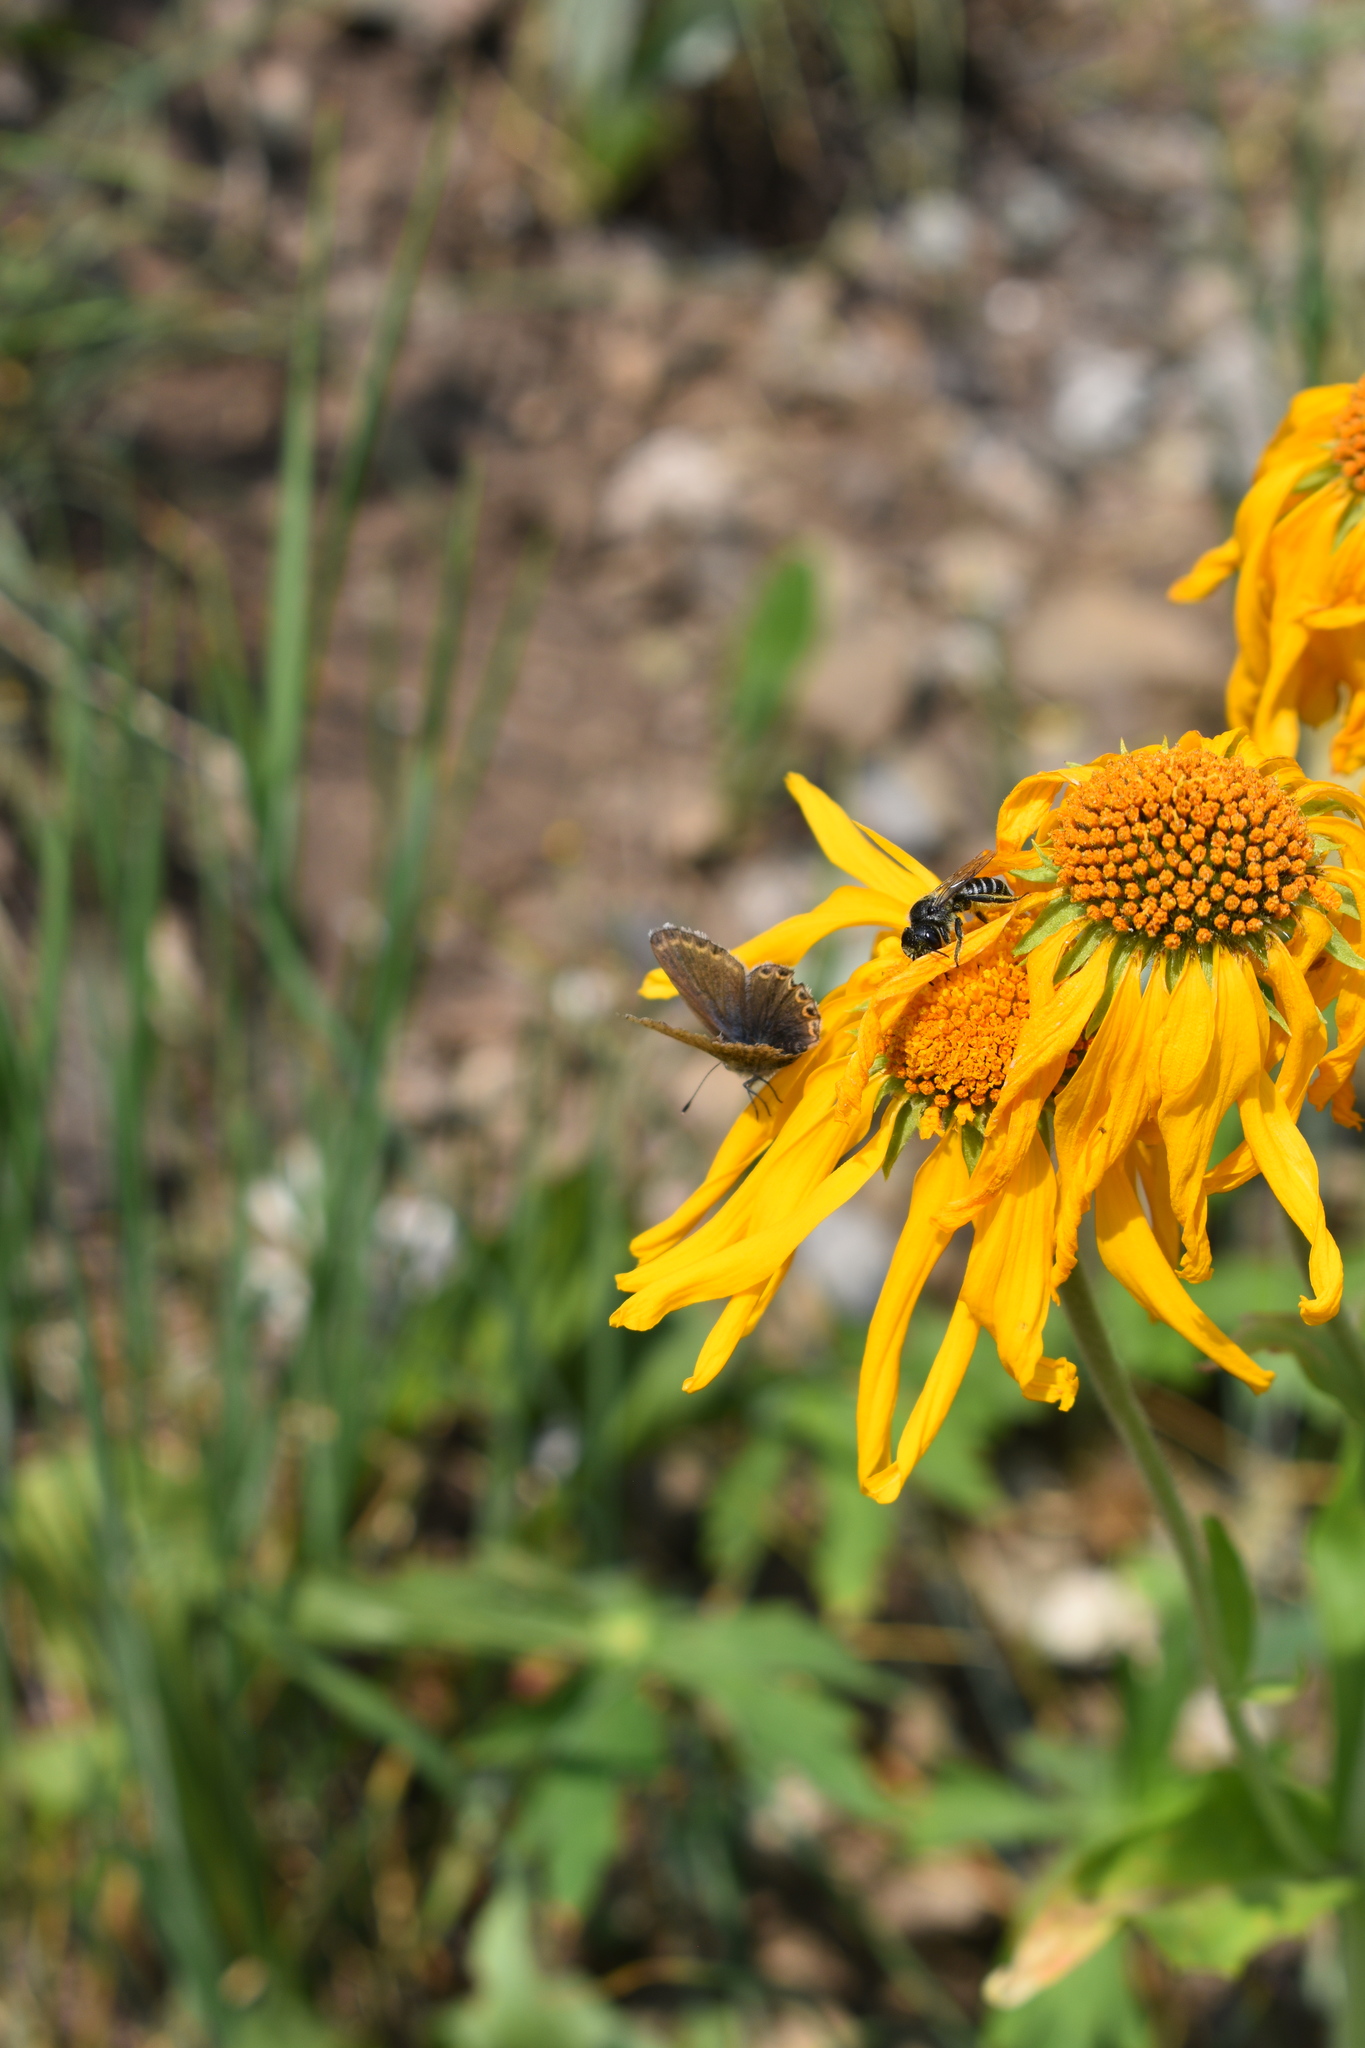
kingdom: Plantae
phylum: Tracheophyta
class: Magnoliopsida
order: Asterales
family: Asteraceae
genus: Hymenoxys
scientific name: Hymenoxys hoopesii
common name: Orange-sneezeweed
